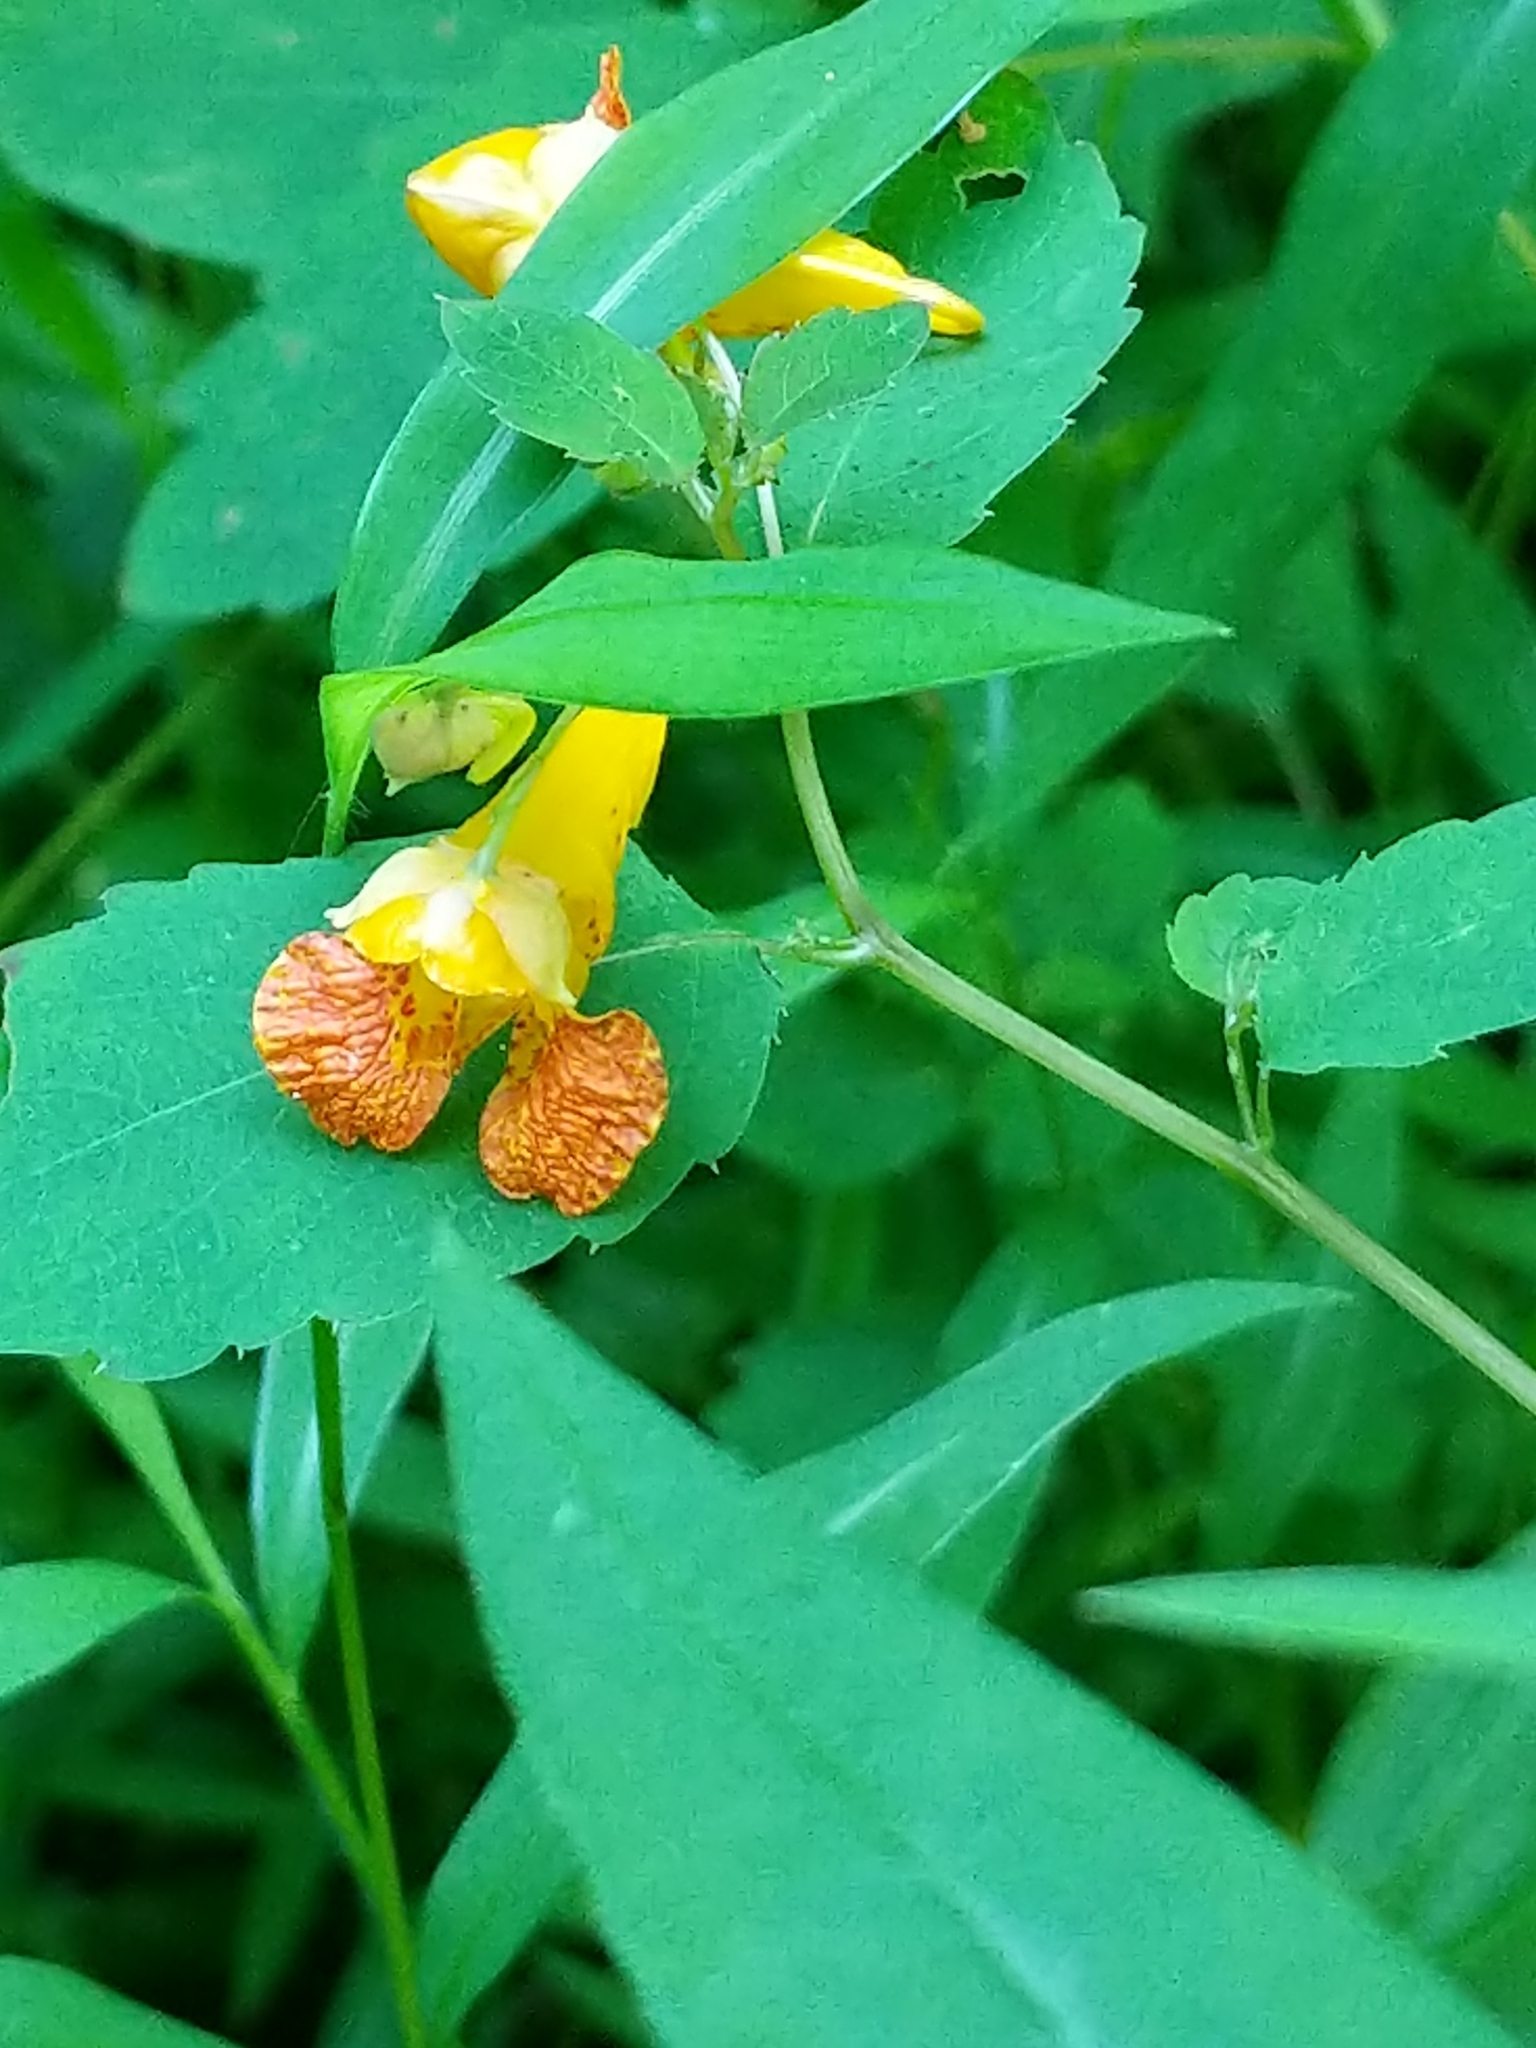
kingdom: Plantae
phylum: Tracheophyta
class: Magnoliopsida
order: Ericales
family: Balsaminaceae
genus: Impatiens
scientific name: Impatiens capensis
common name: Orange balsam
